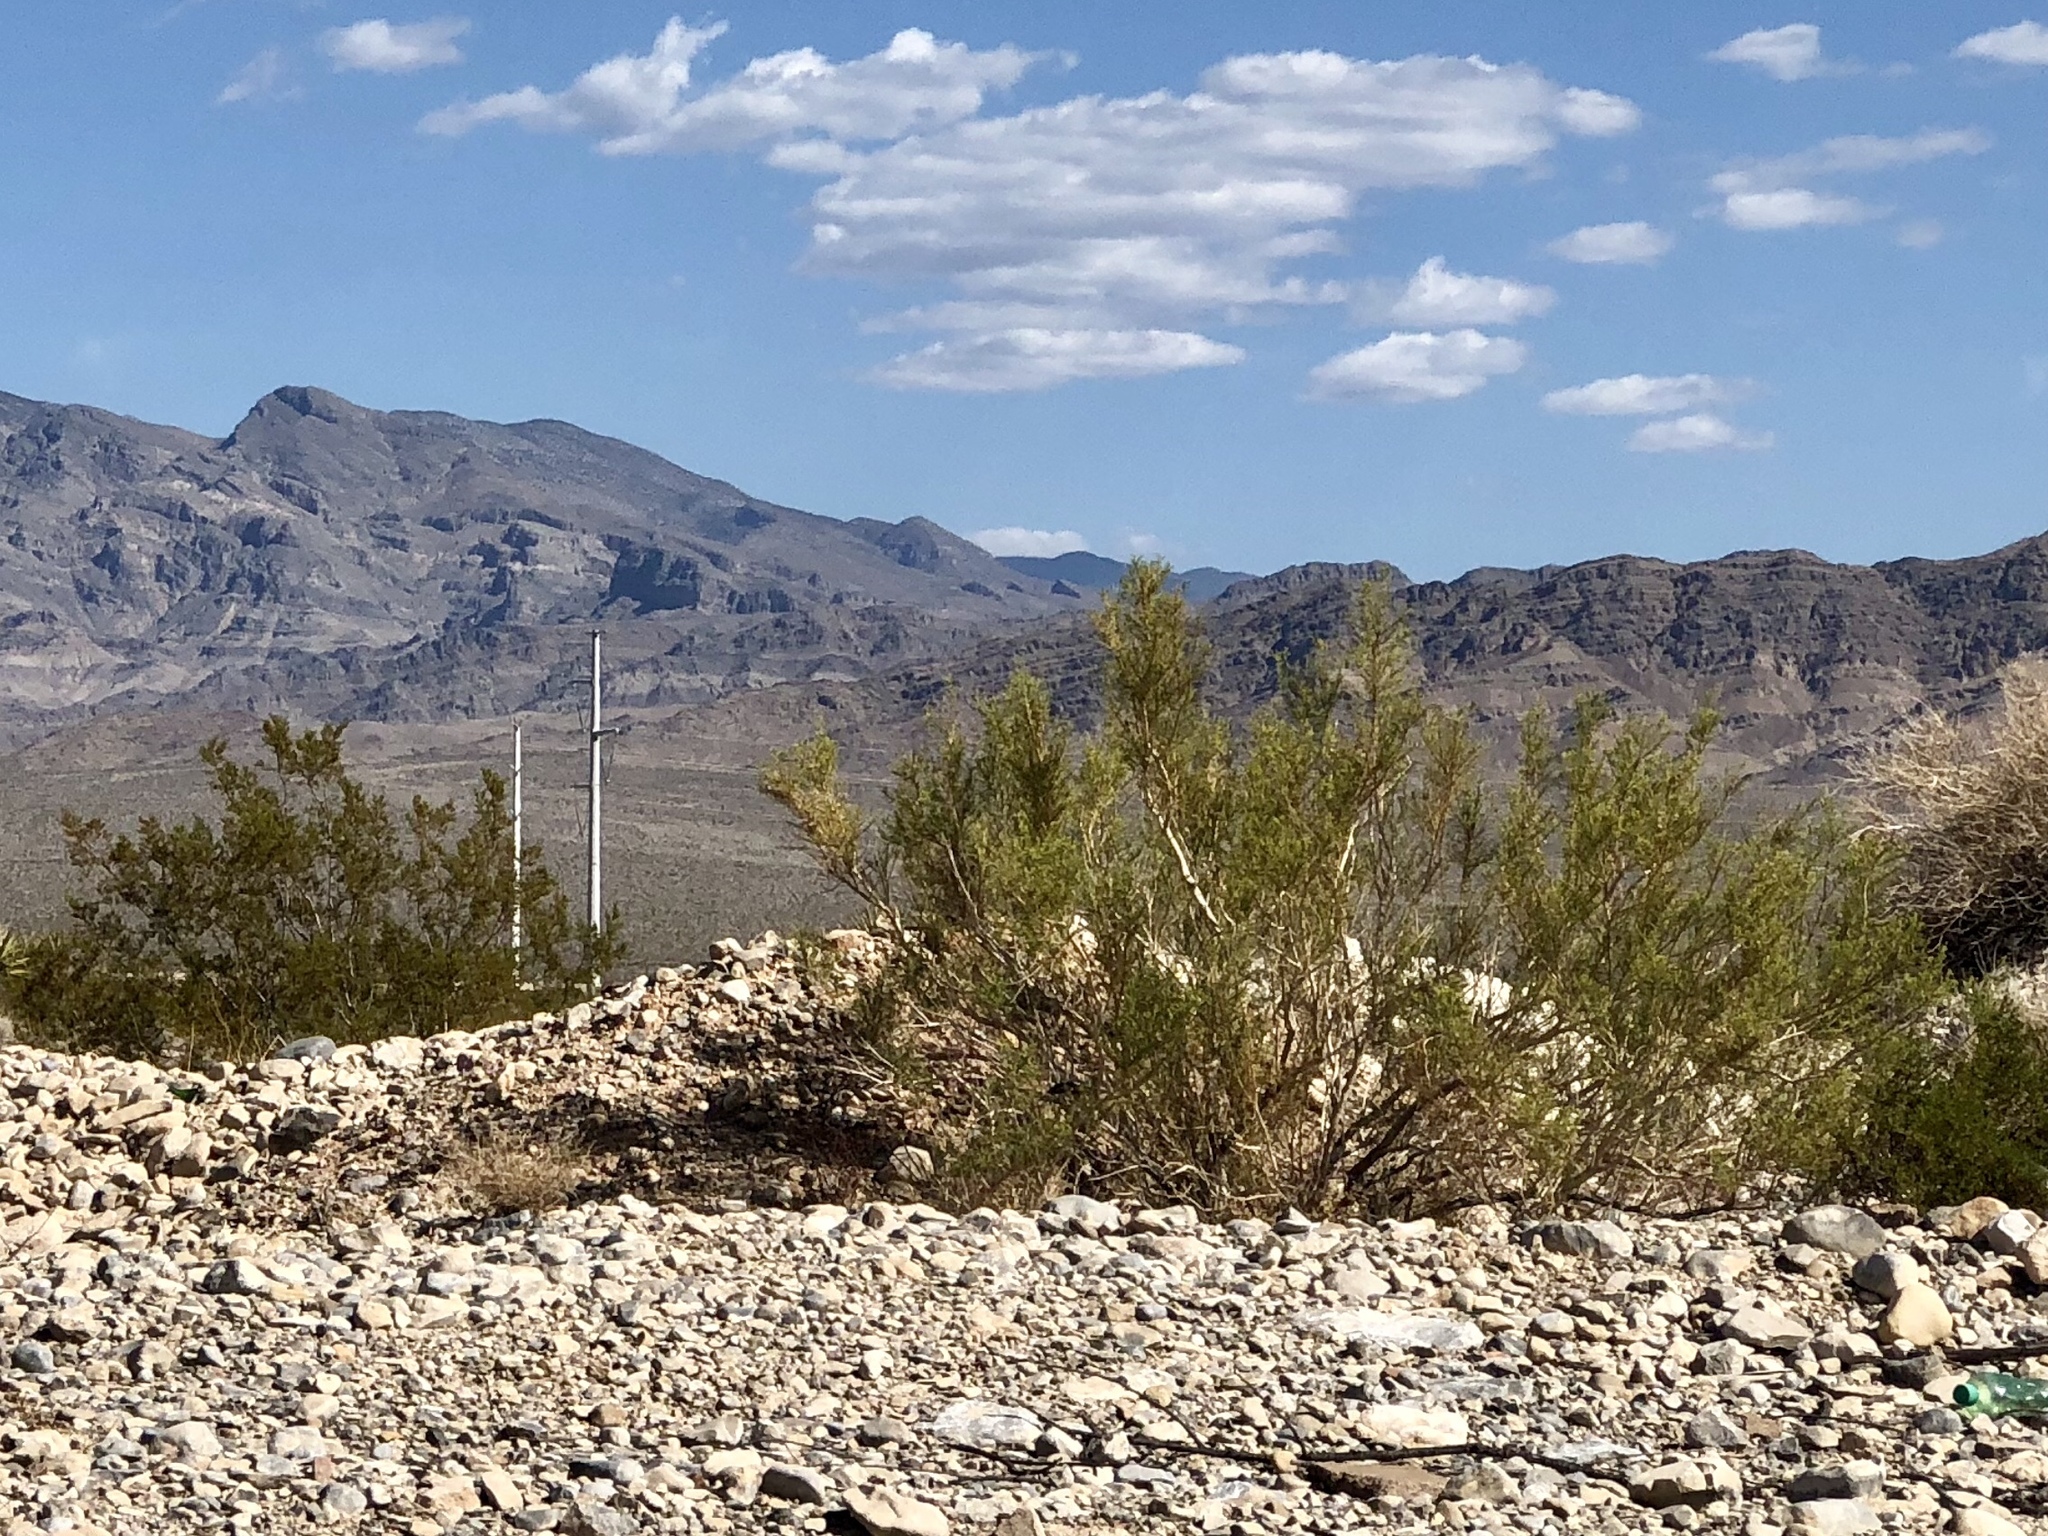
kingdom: Plantae
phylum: Tracheophyta
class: Magnoliopsida
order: Zygophyllales
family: Zygophyllaceae
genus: Larrea
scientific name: Larrea tridentata
